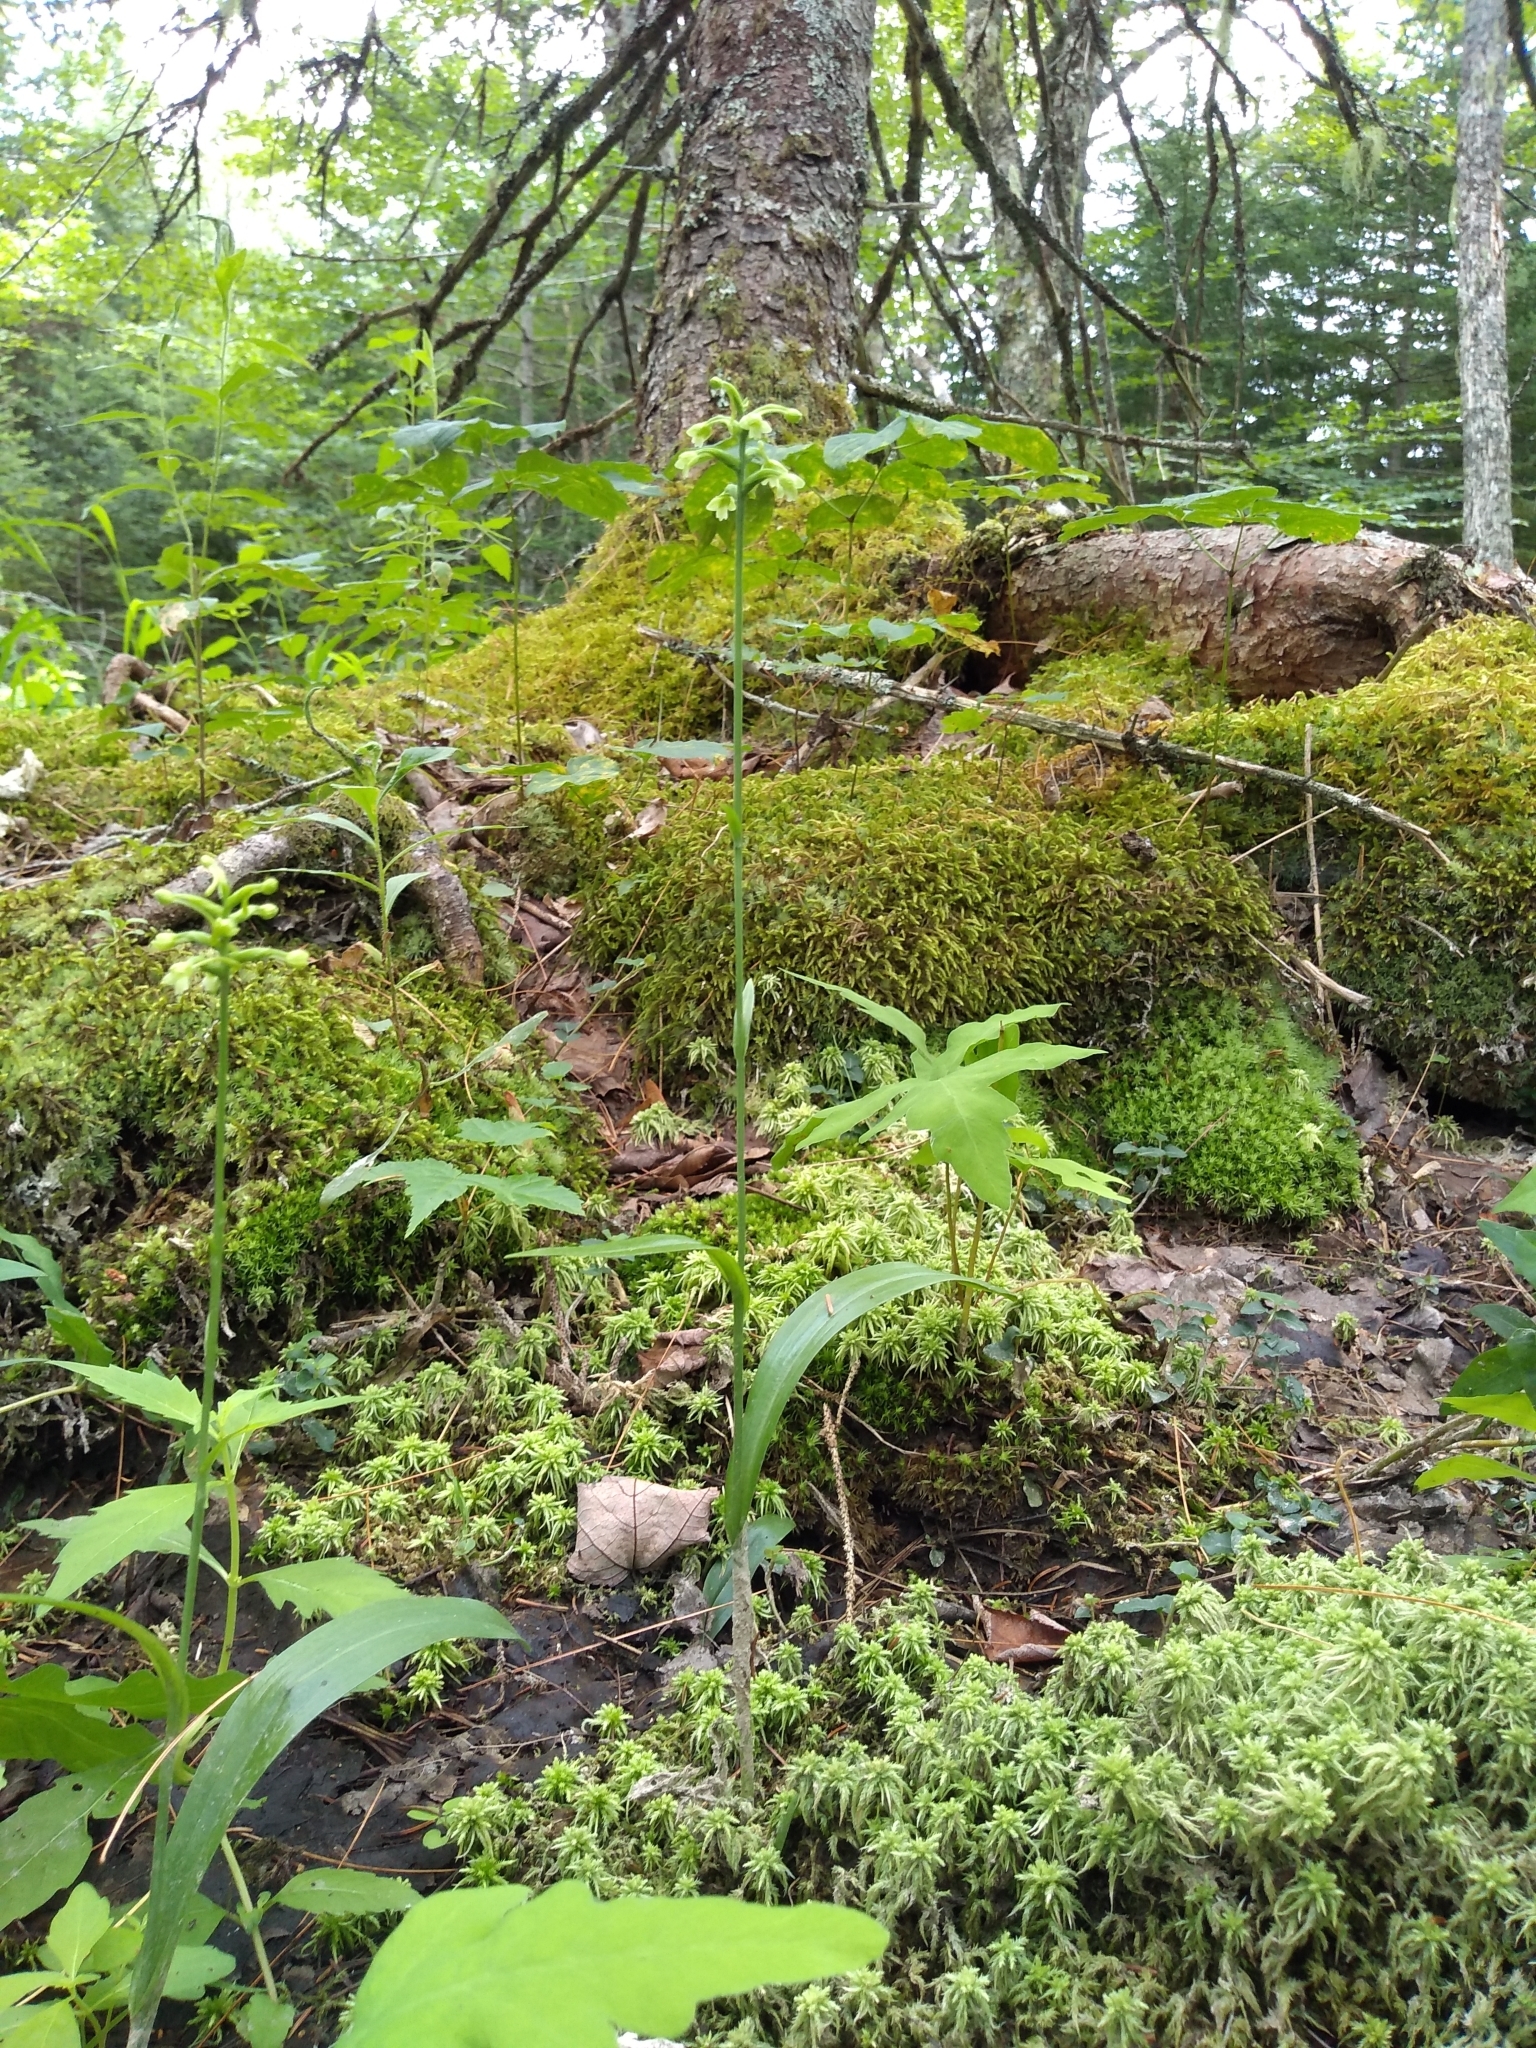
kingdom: Plantae
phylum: Tracheophyta
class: Liliopsida
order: Asparagales
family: Orchidaceae
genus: Platanthera
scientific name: Platanthera clavellata
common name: Club-spur orchid
